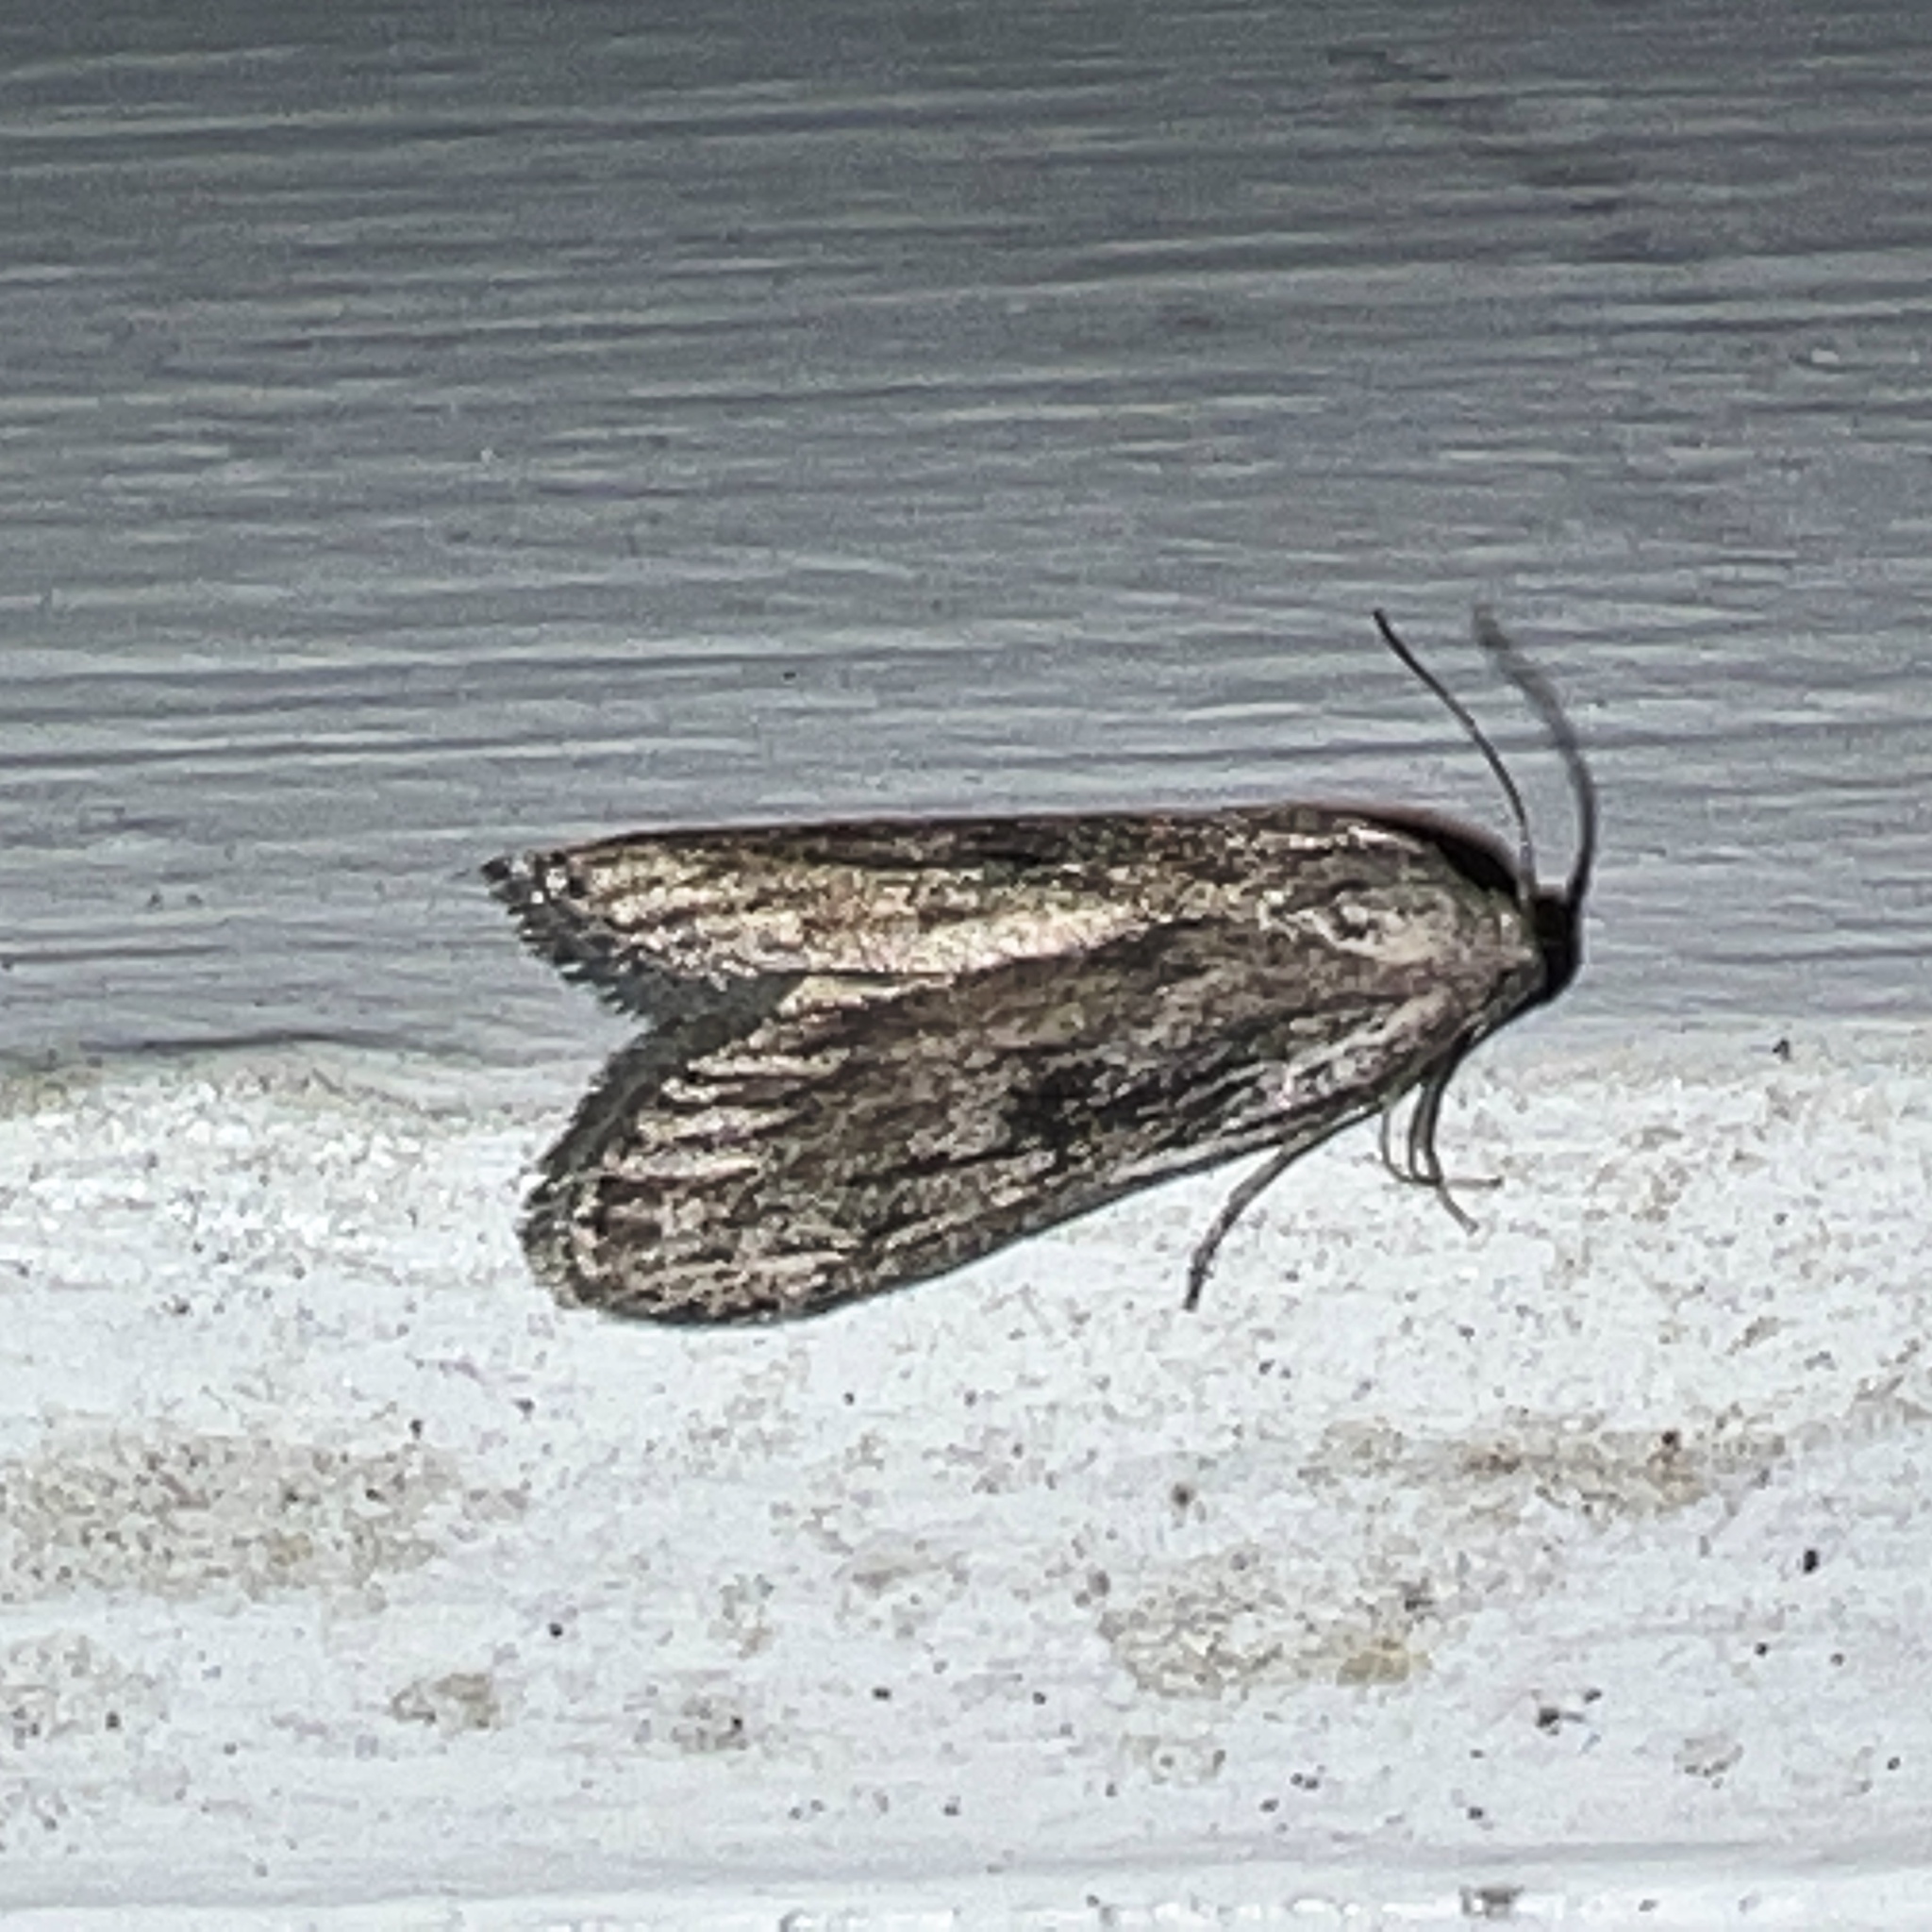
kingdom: Animalia
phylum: Arthropoda
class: Insecta
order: Lepidoptera
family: Pyralidae
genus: Aphomia
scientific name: Aphomia terrenella
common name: Terrenella bee moth
